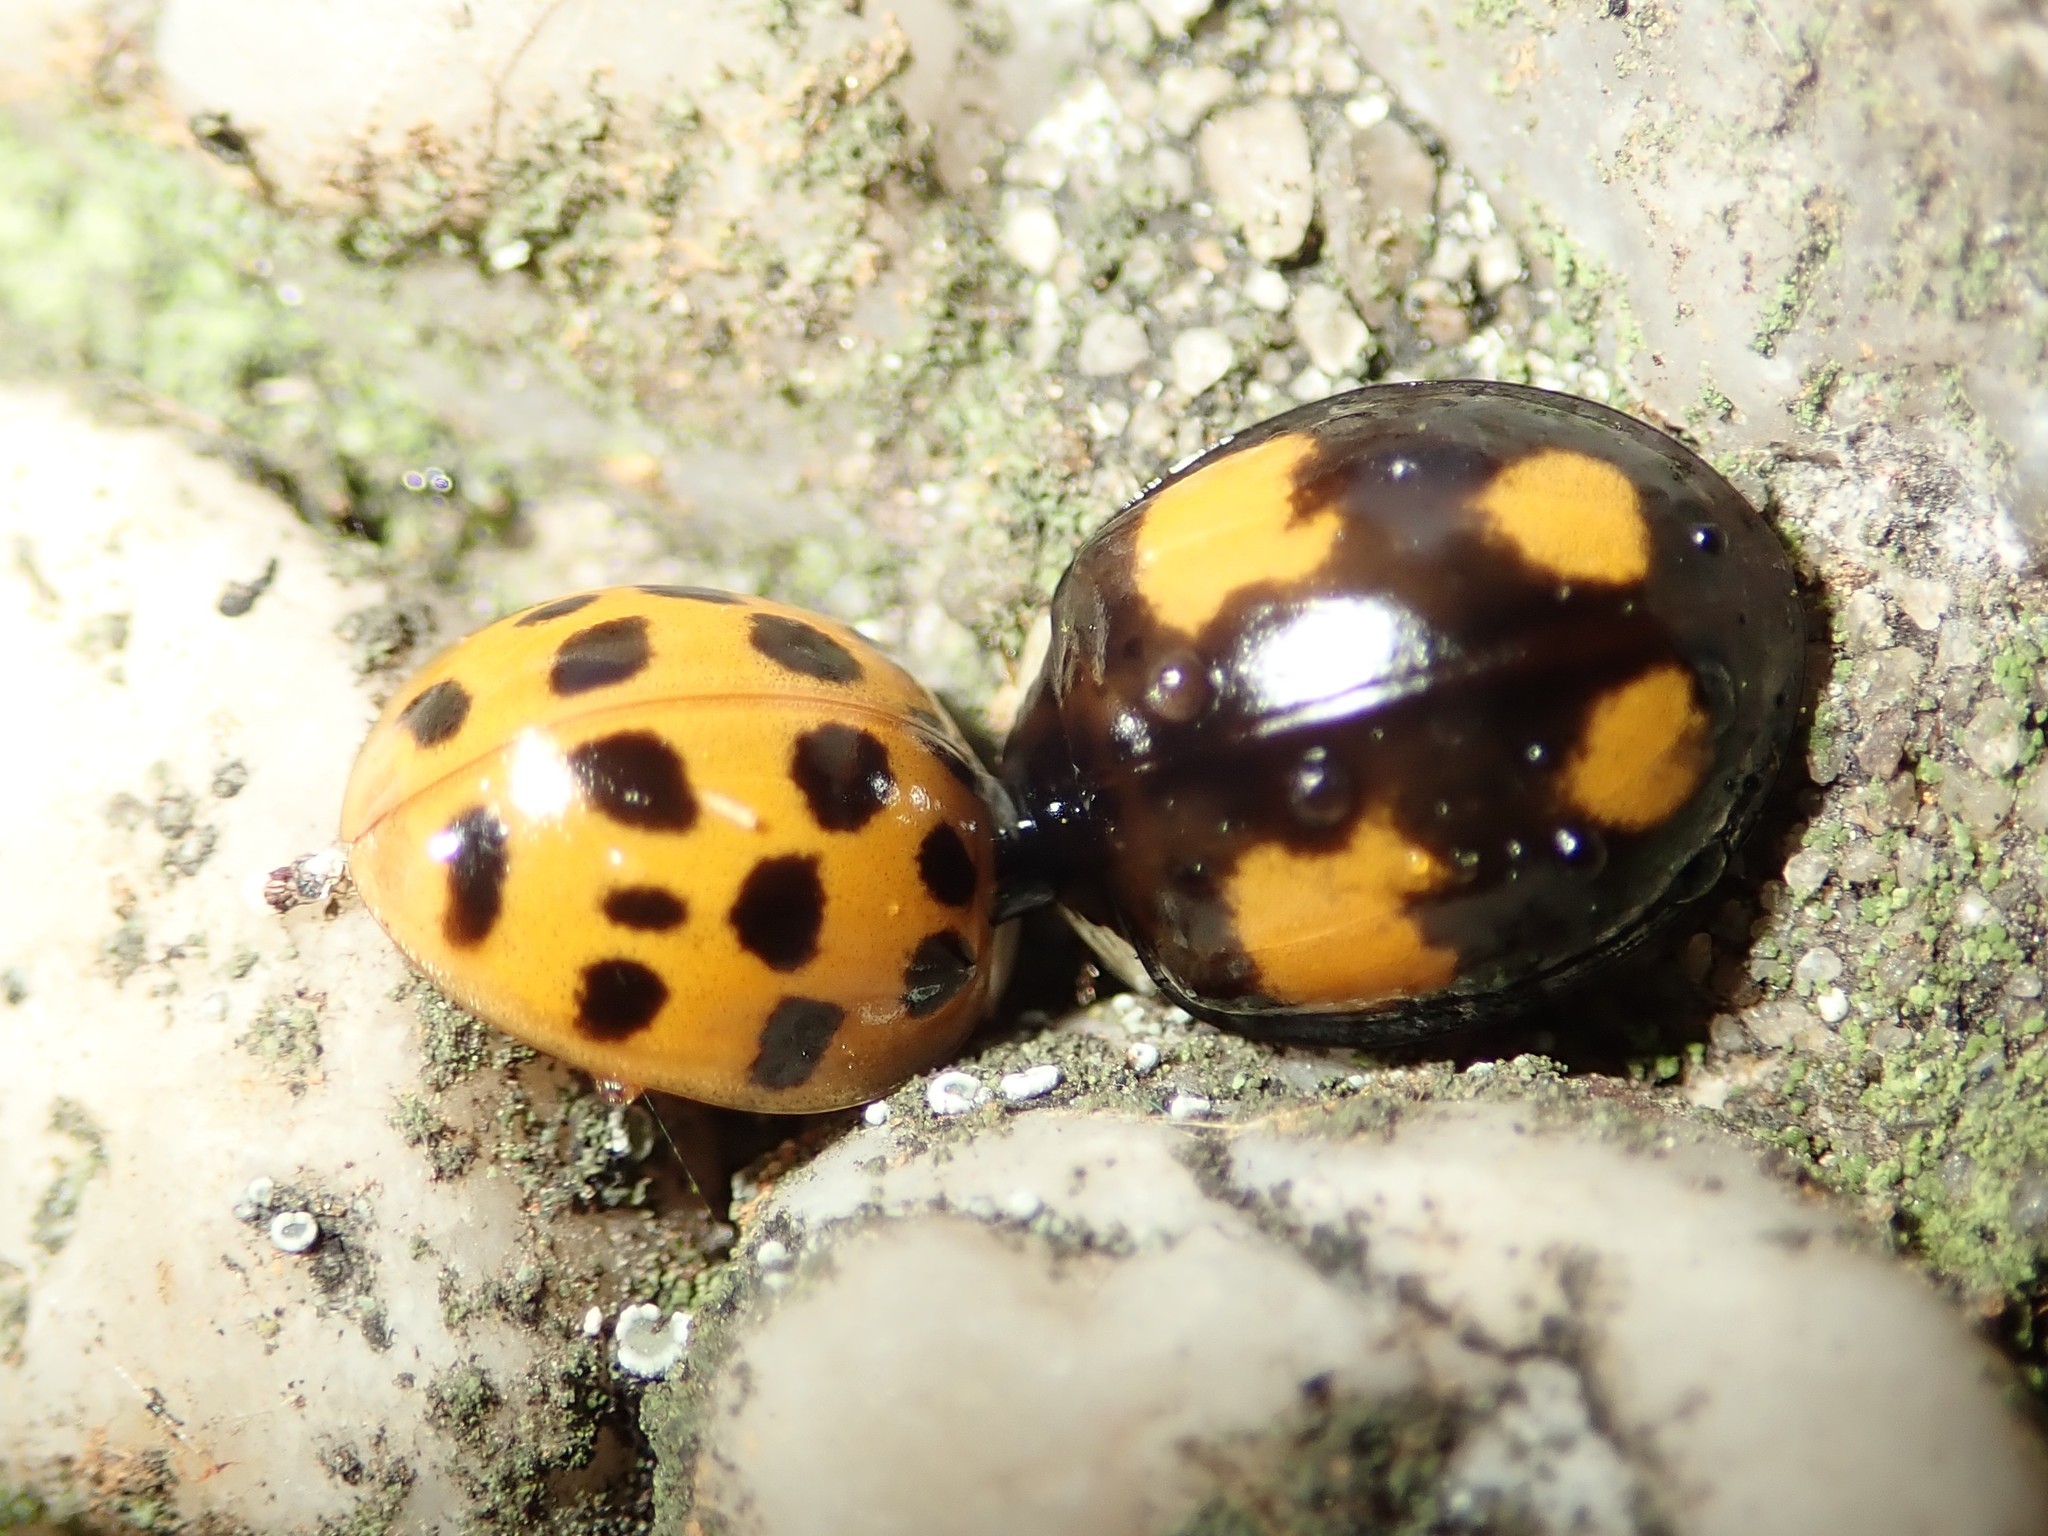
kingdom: Animalia
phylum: Arthropoda
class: Insecta
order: Coleoptera
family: Coccinellidae
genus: Harmonia
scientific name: Harmonia axyridis
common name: Harlequin ladybird
